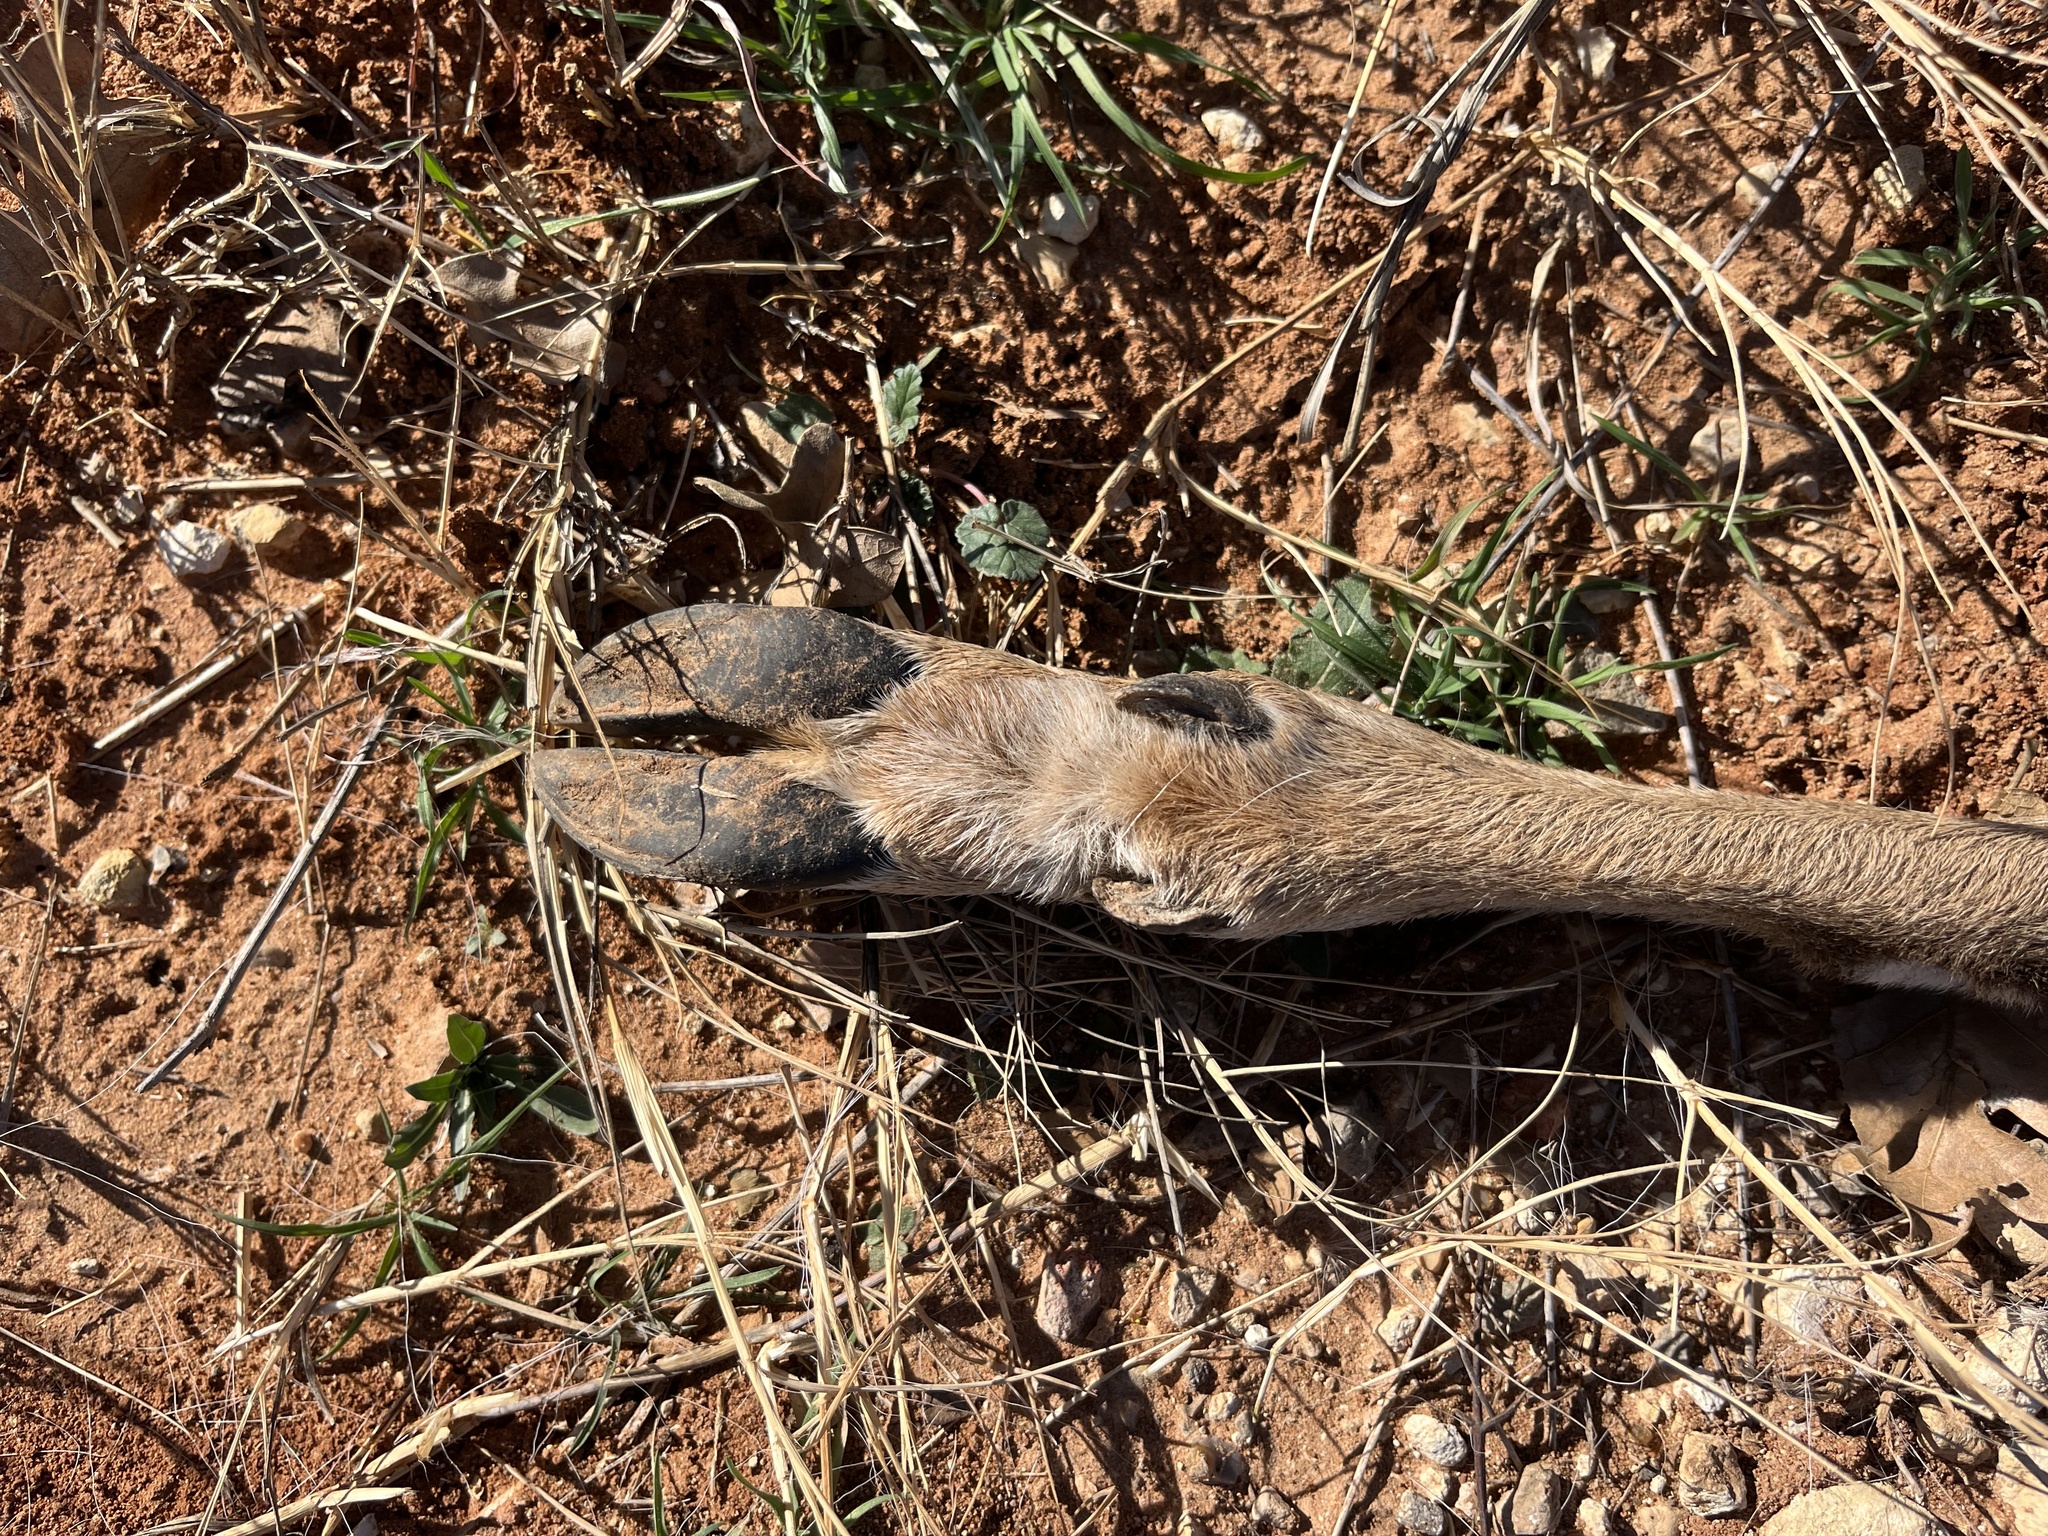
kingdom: Animalia
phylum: Chordata
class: Mammalia
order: Artiodactyla
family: Cervidae
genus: Odocoileus
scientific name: Odocoileus virginianus
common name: White-tailed deer
